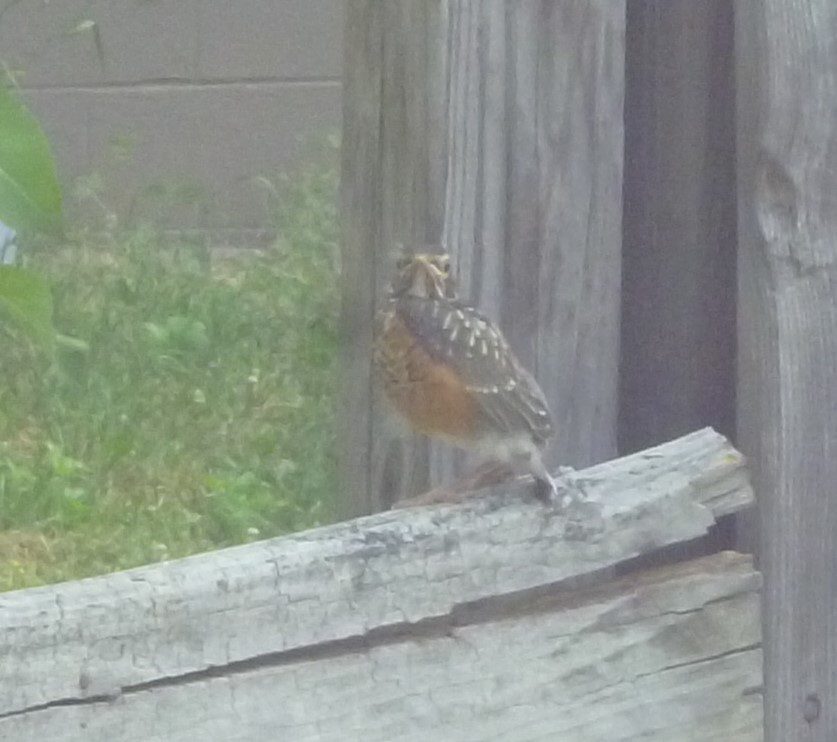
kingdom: Animalia
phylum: Chordata
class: Aves
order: Passeriformes
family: Turdidae
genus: Turdus
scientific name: Turdus migratorius
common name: American robin
